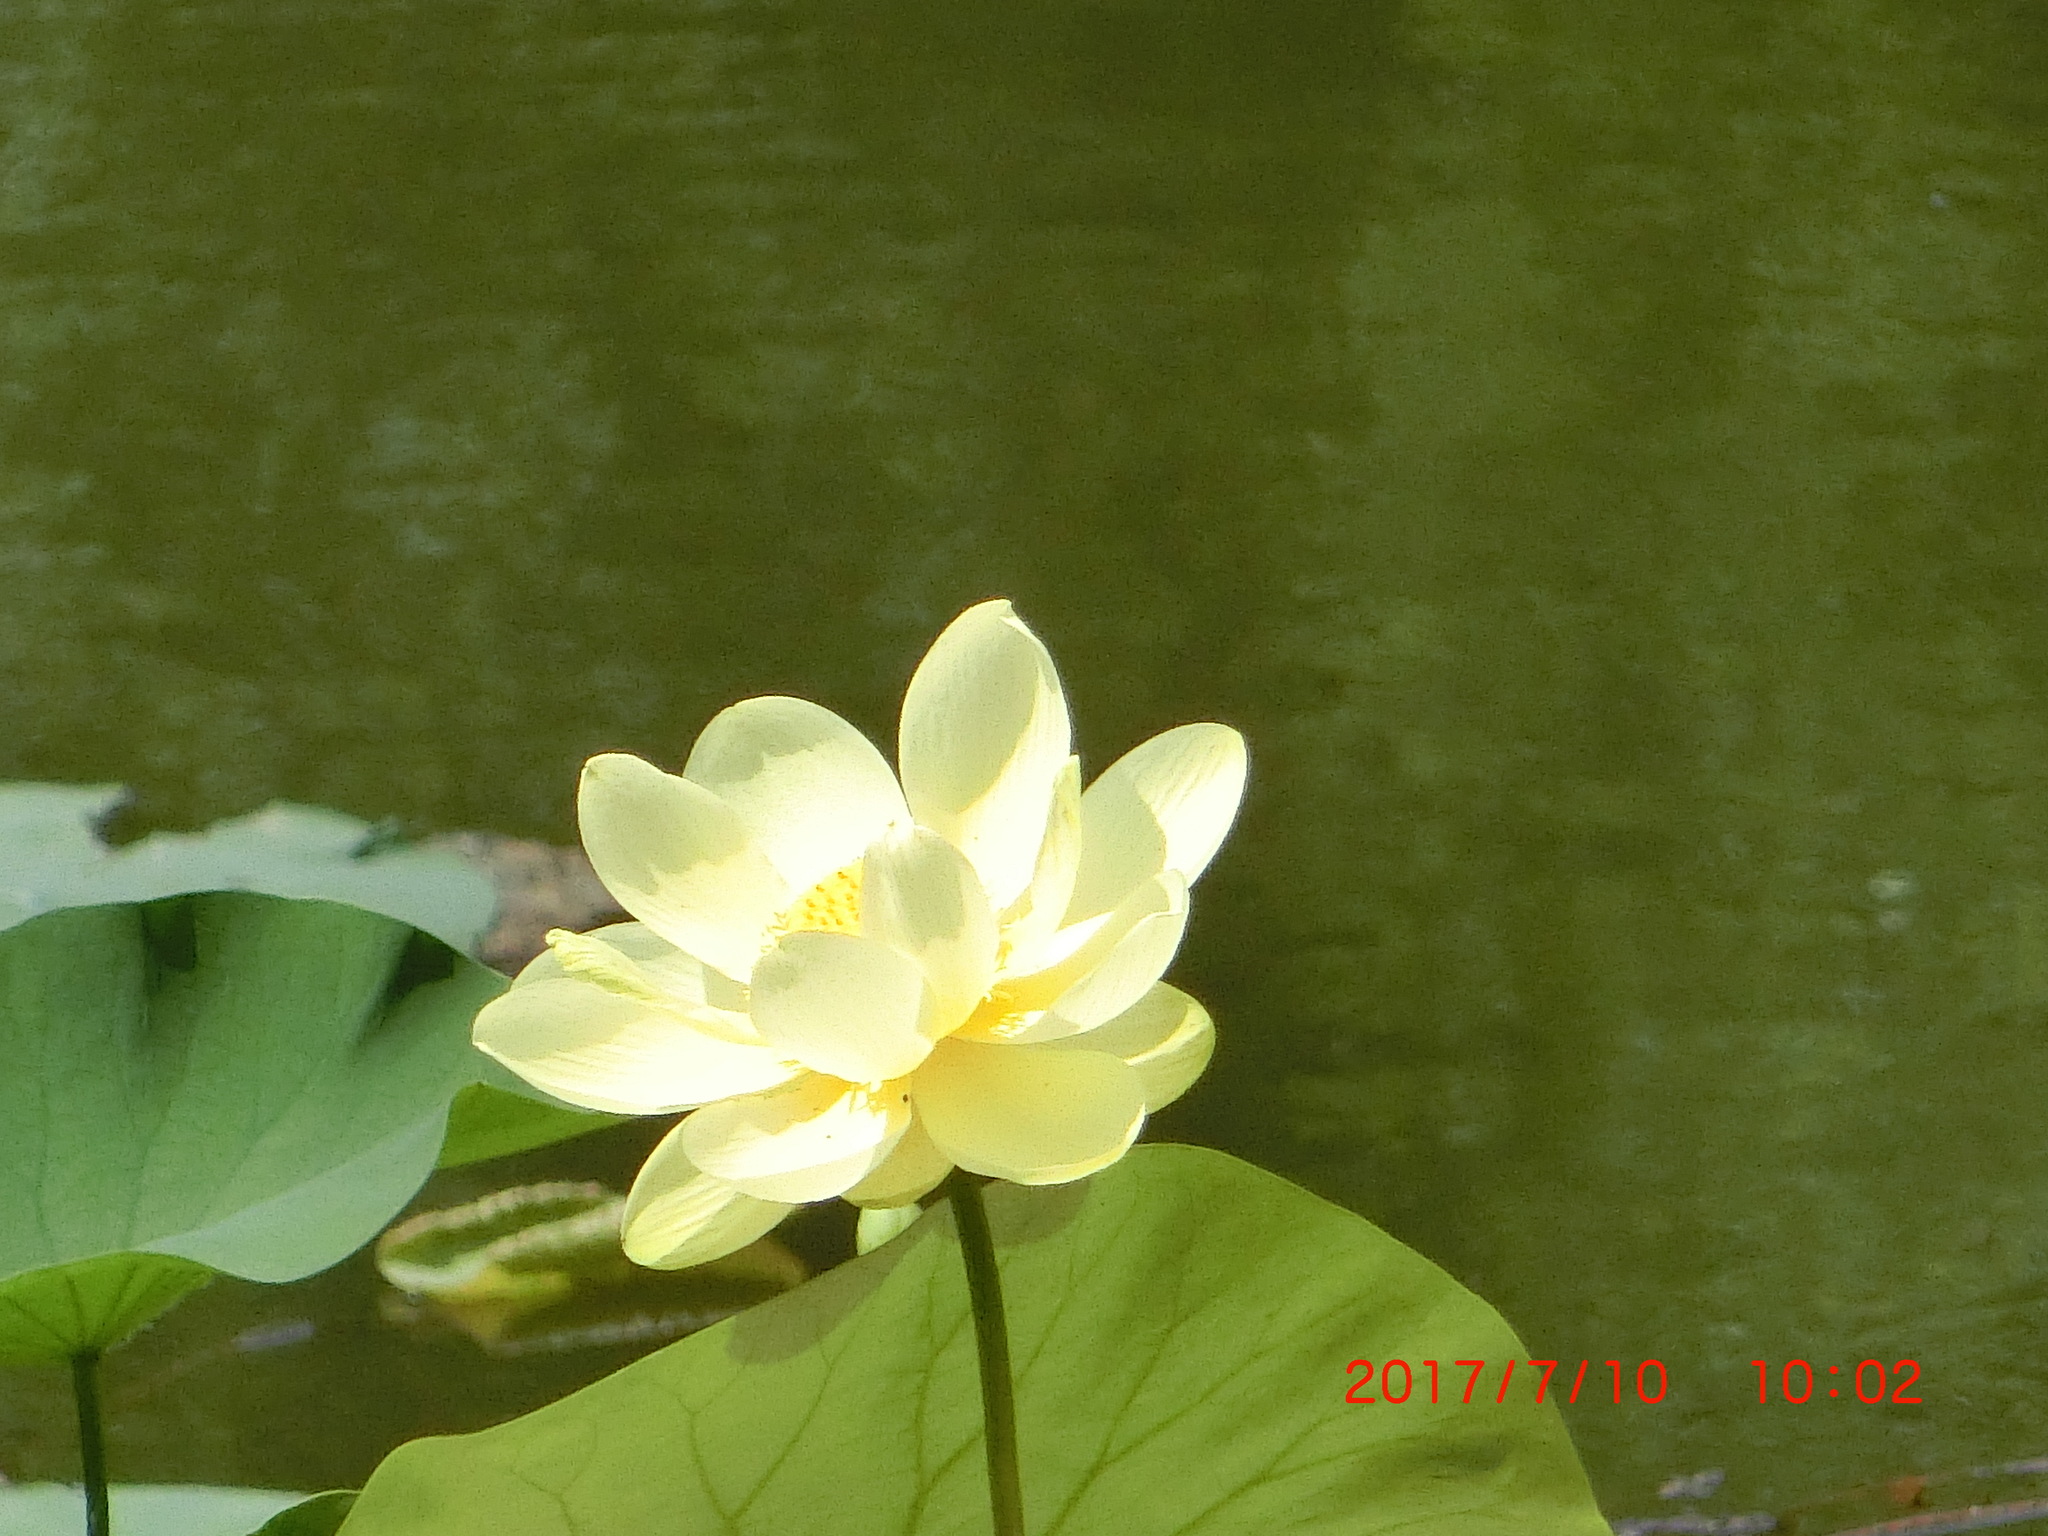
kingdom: Plantae
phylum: Tracheophyta
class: Magnoliopsida
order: Proteales
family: Nelumbonaceae
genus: Nelumbo
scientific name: Nelumbo lutea
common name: American lotus
